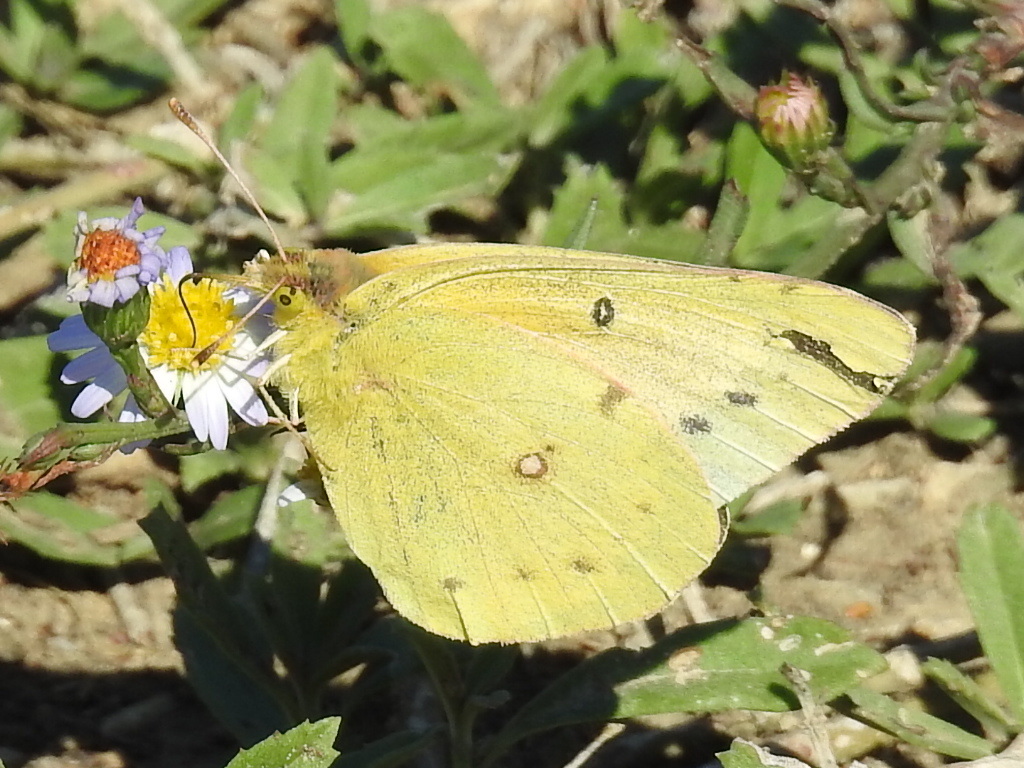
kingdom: Animalia
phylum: Arthropoda
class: Insecta
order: Lepidoptera
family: Pieridae
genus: Colias
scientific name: Colias eurytheme
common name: Alfalfa butterfly
